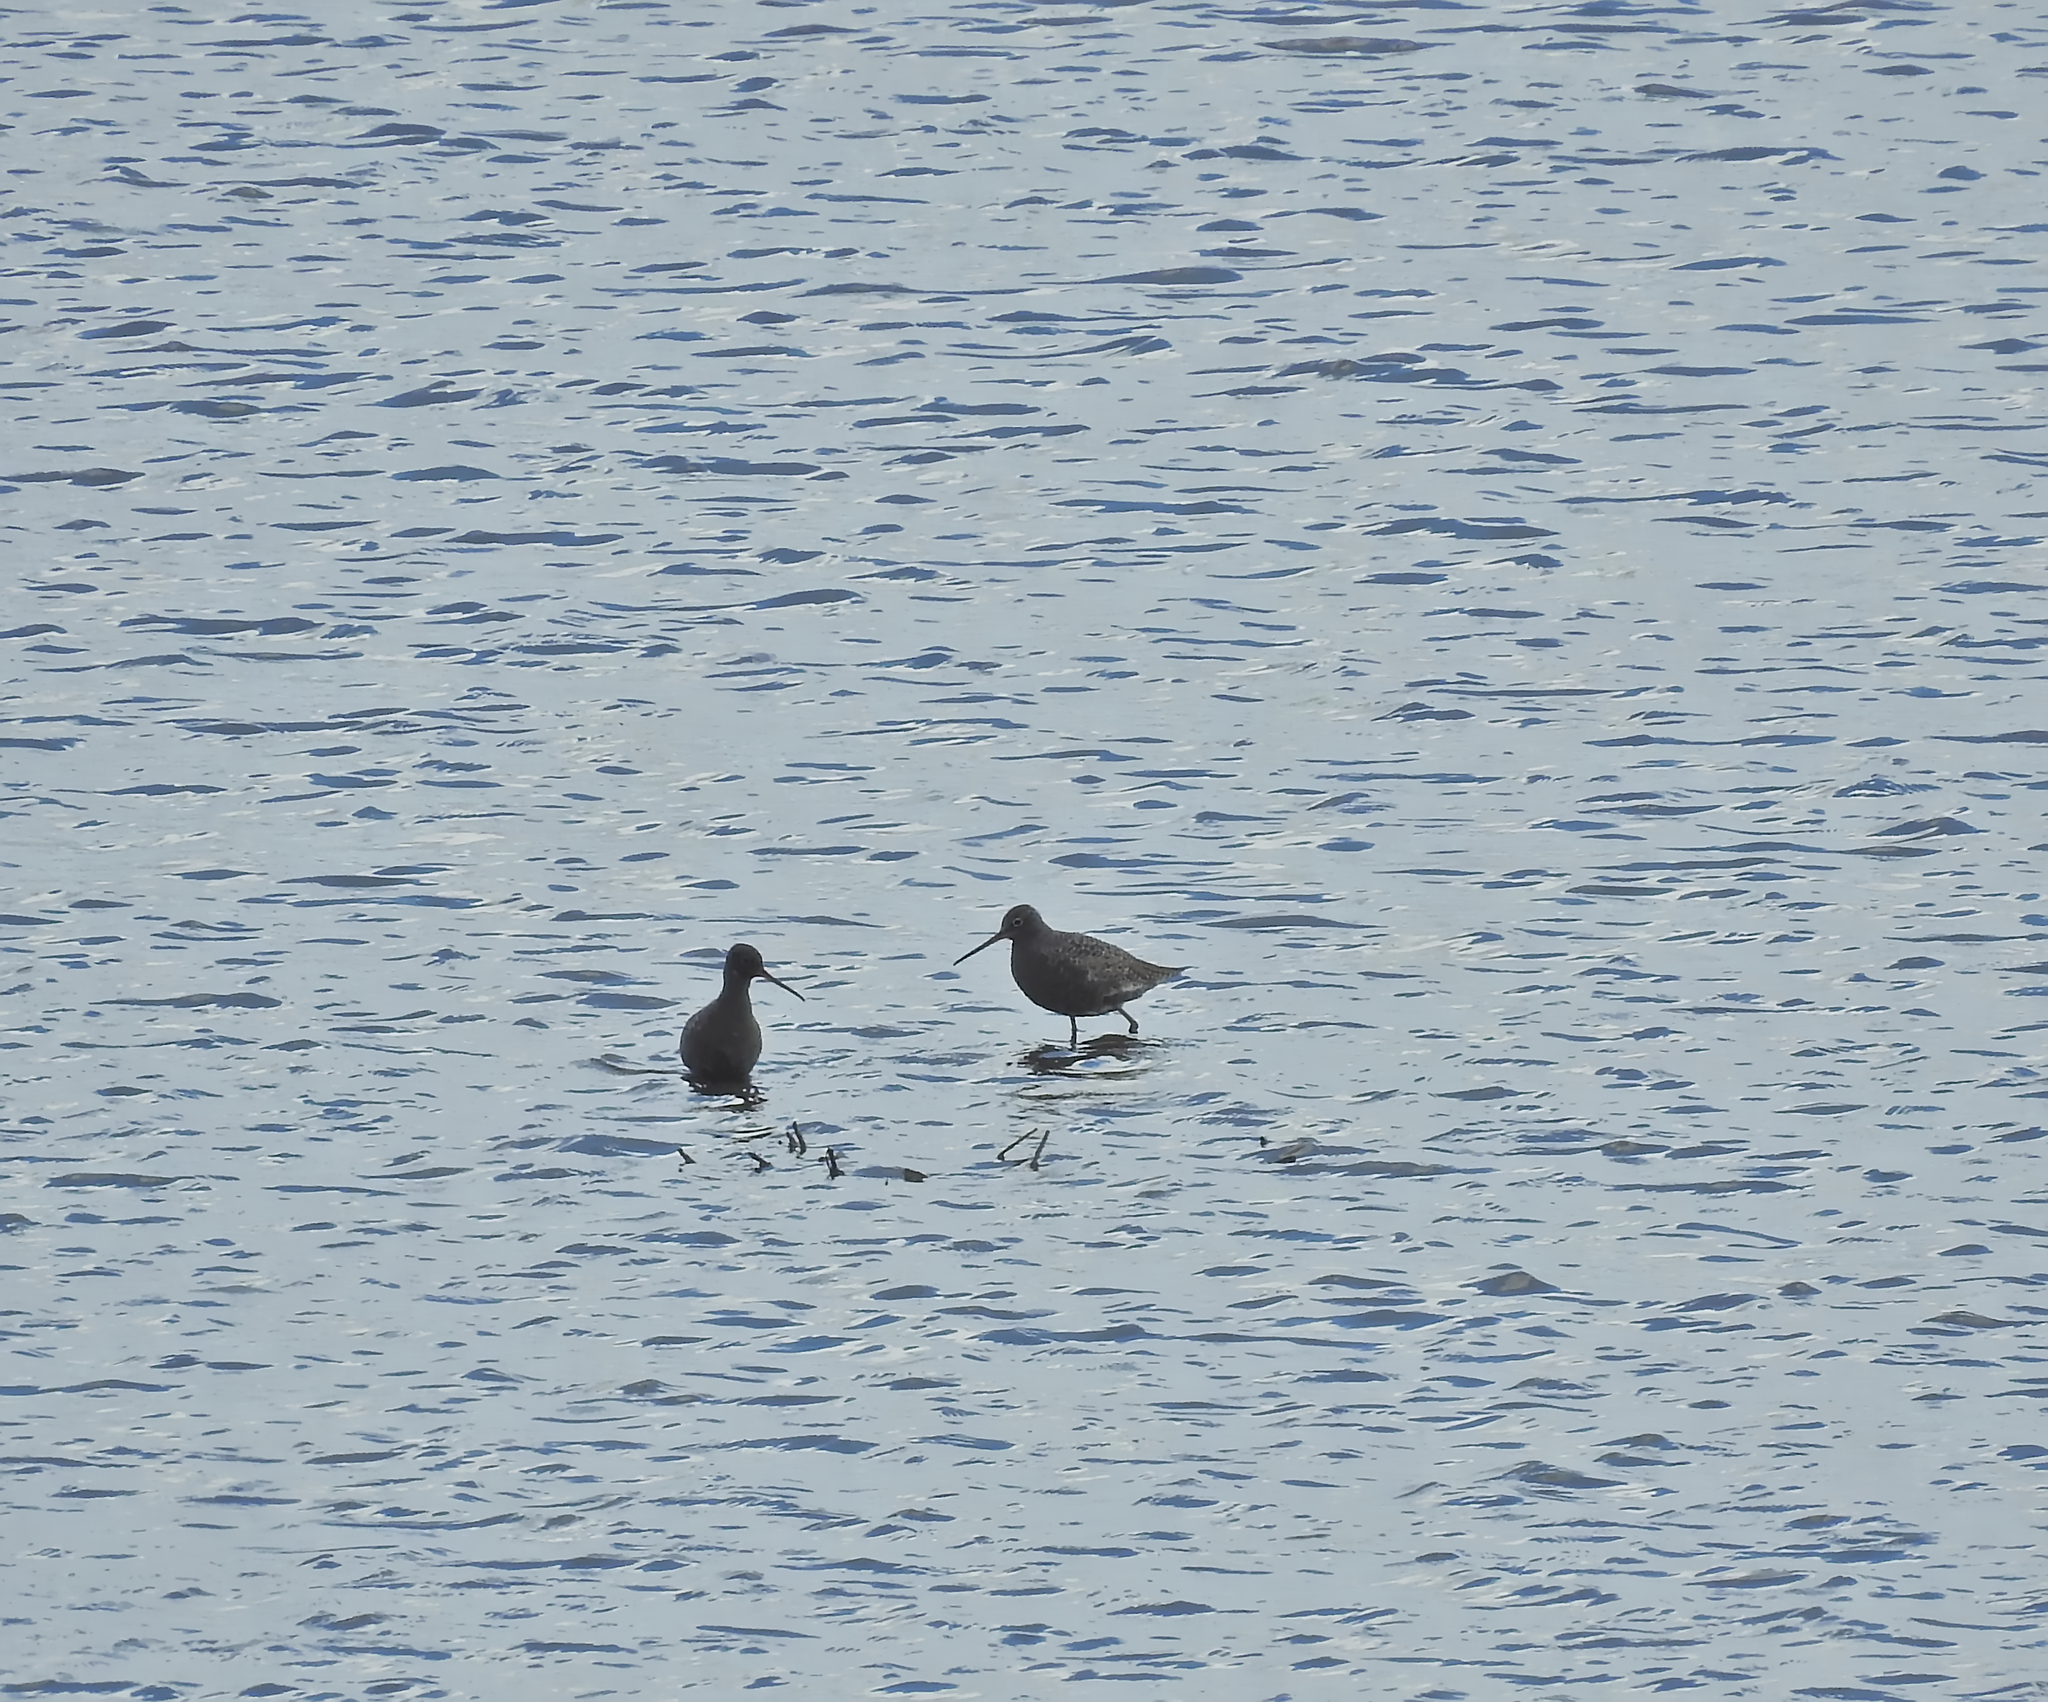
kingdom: Animalia
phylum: Chordata
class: Aves
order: Charadriiformes
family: Scolopacidae
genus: Tringa
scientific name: Tringa erythropus
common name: Spotted redshank
